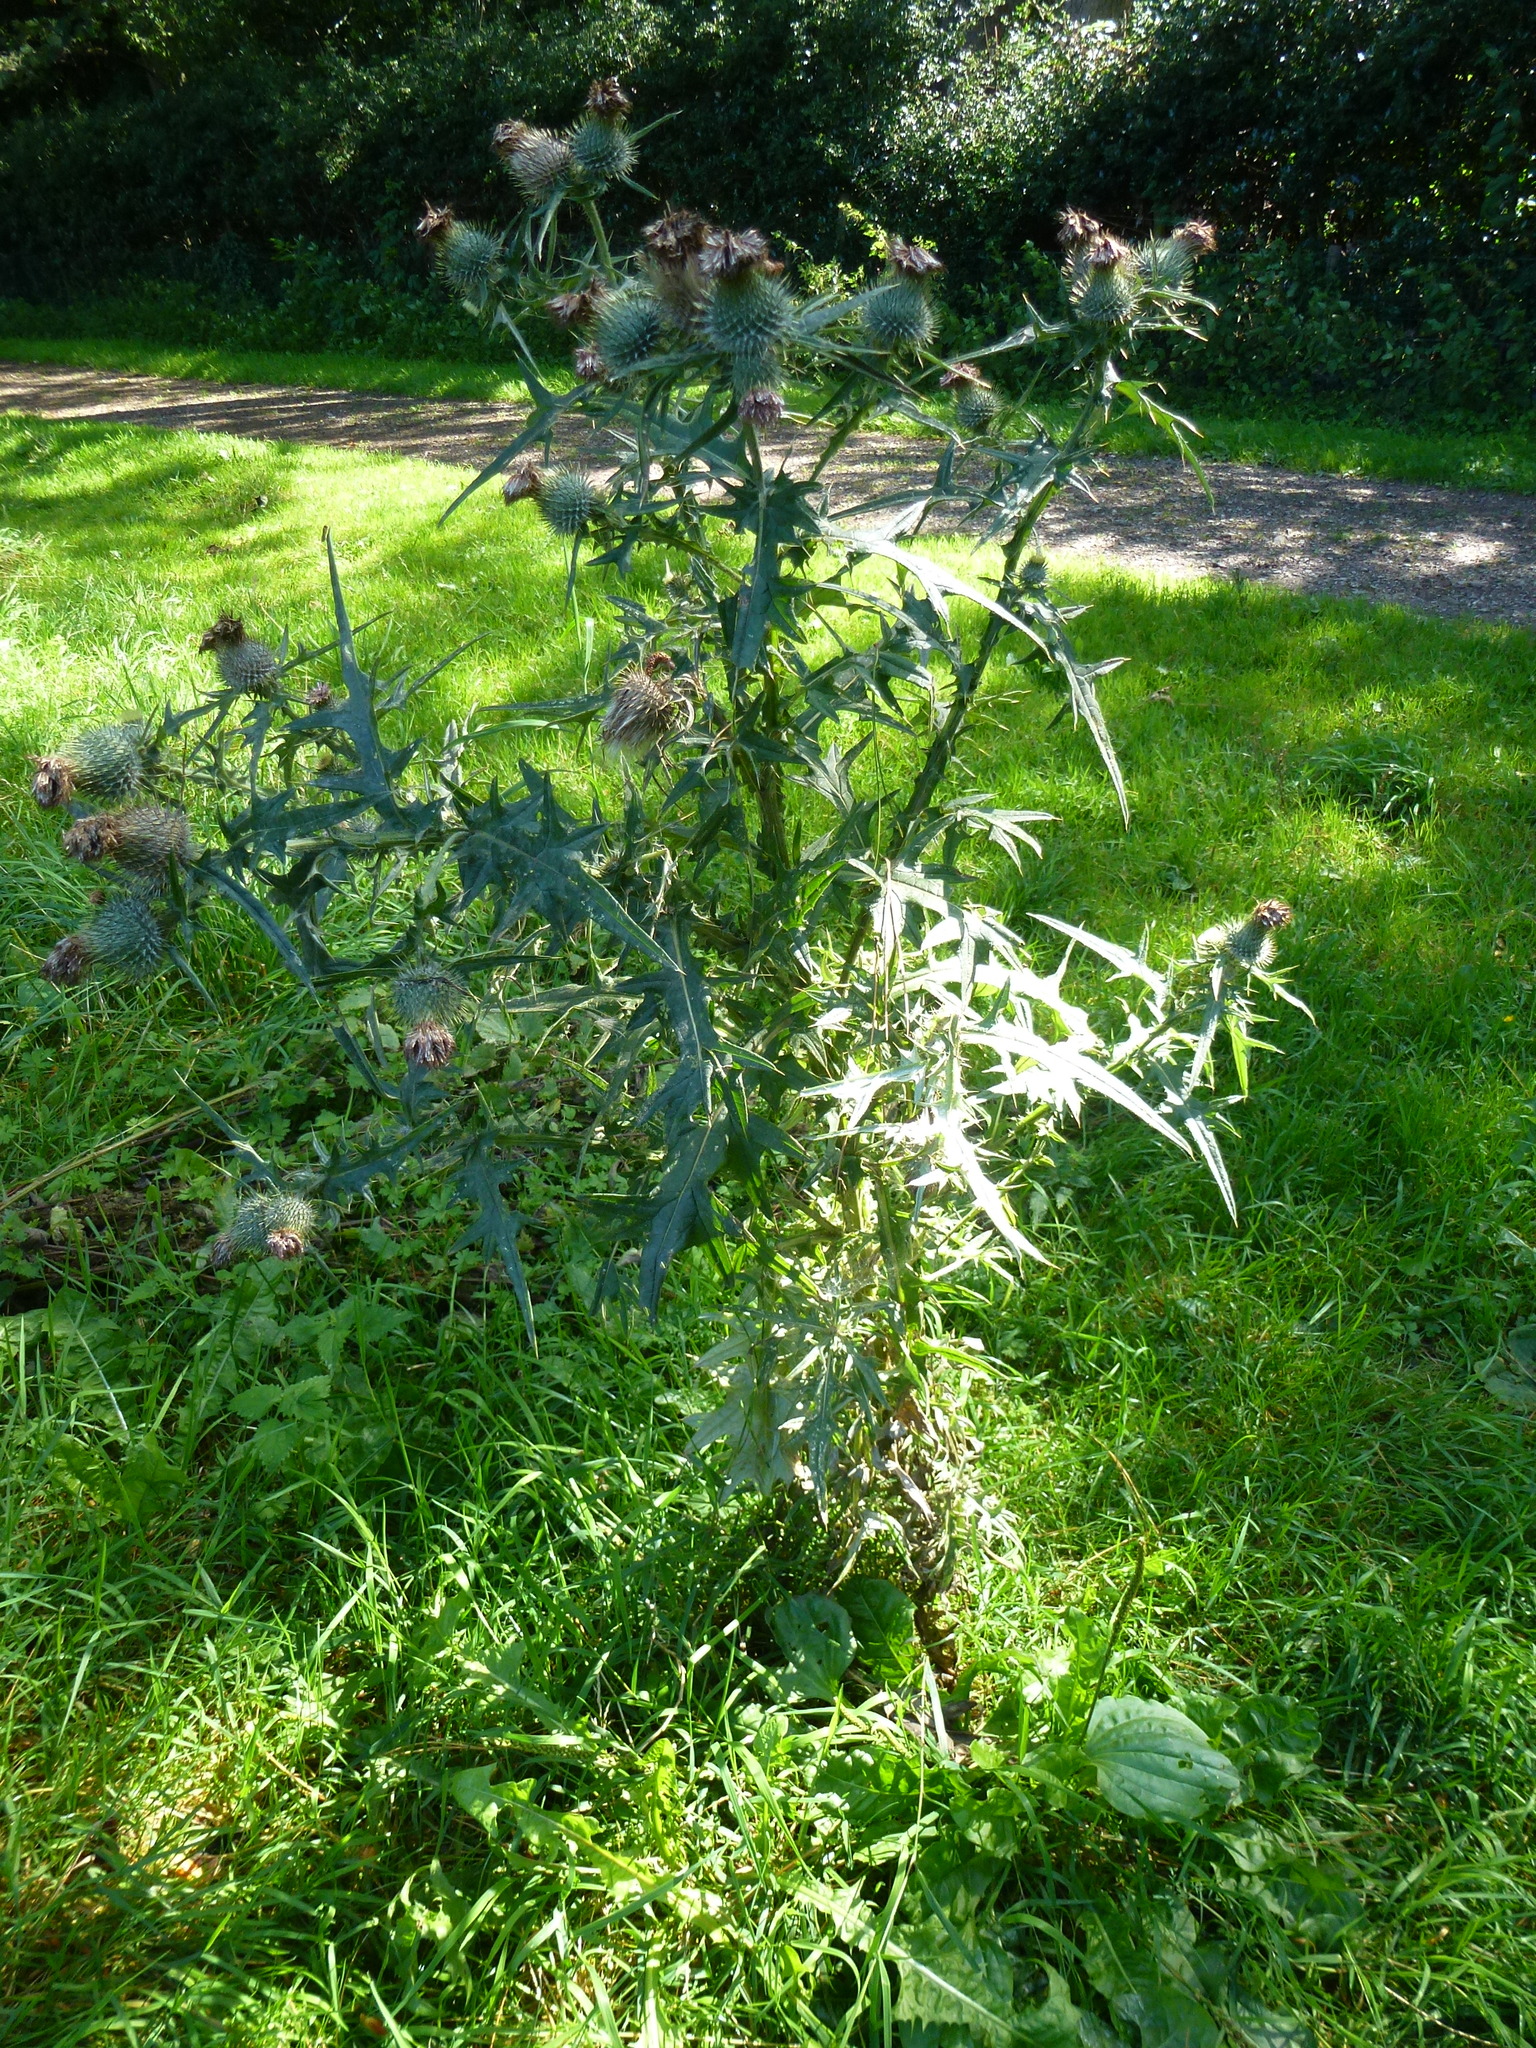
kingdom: Plantae
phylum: Tracheophyta
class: Magnoliopsida
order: Asterales
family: Asteraceae
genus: Cirsium
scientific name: Cirsium vulgare
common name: Bull thistle
